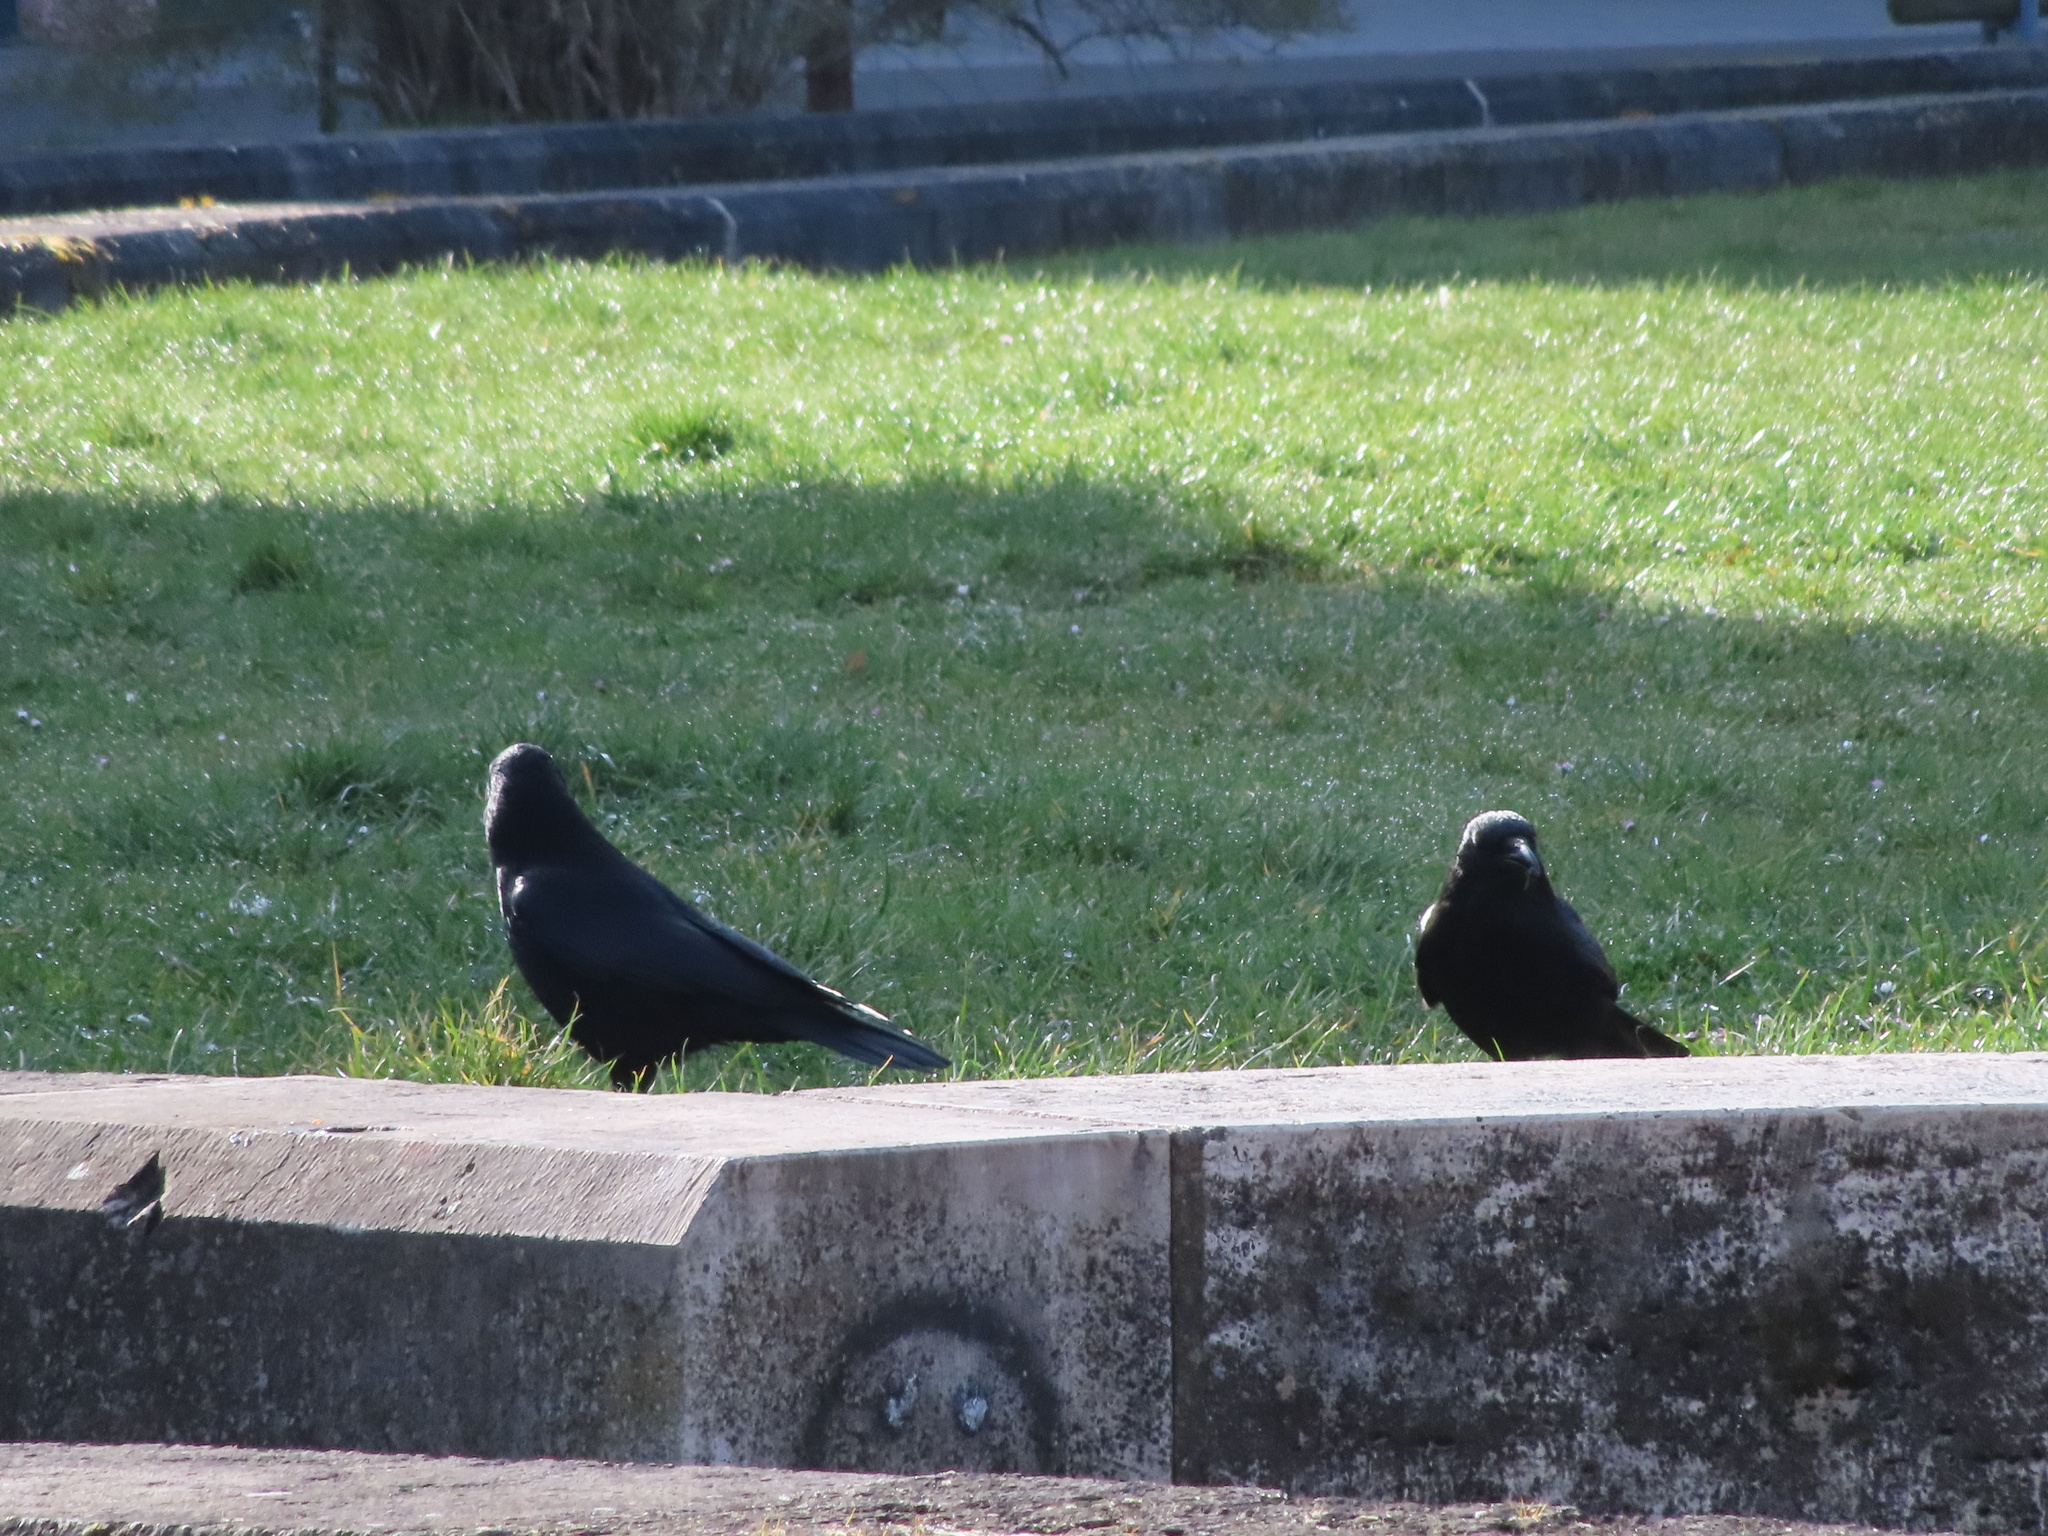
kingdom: Animalia
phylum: Chordata
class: Aves
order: Passeriformes
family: Corvidae
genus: Corvus
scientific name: Corvus corone
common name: Carrion crow
